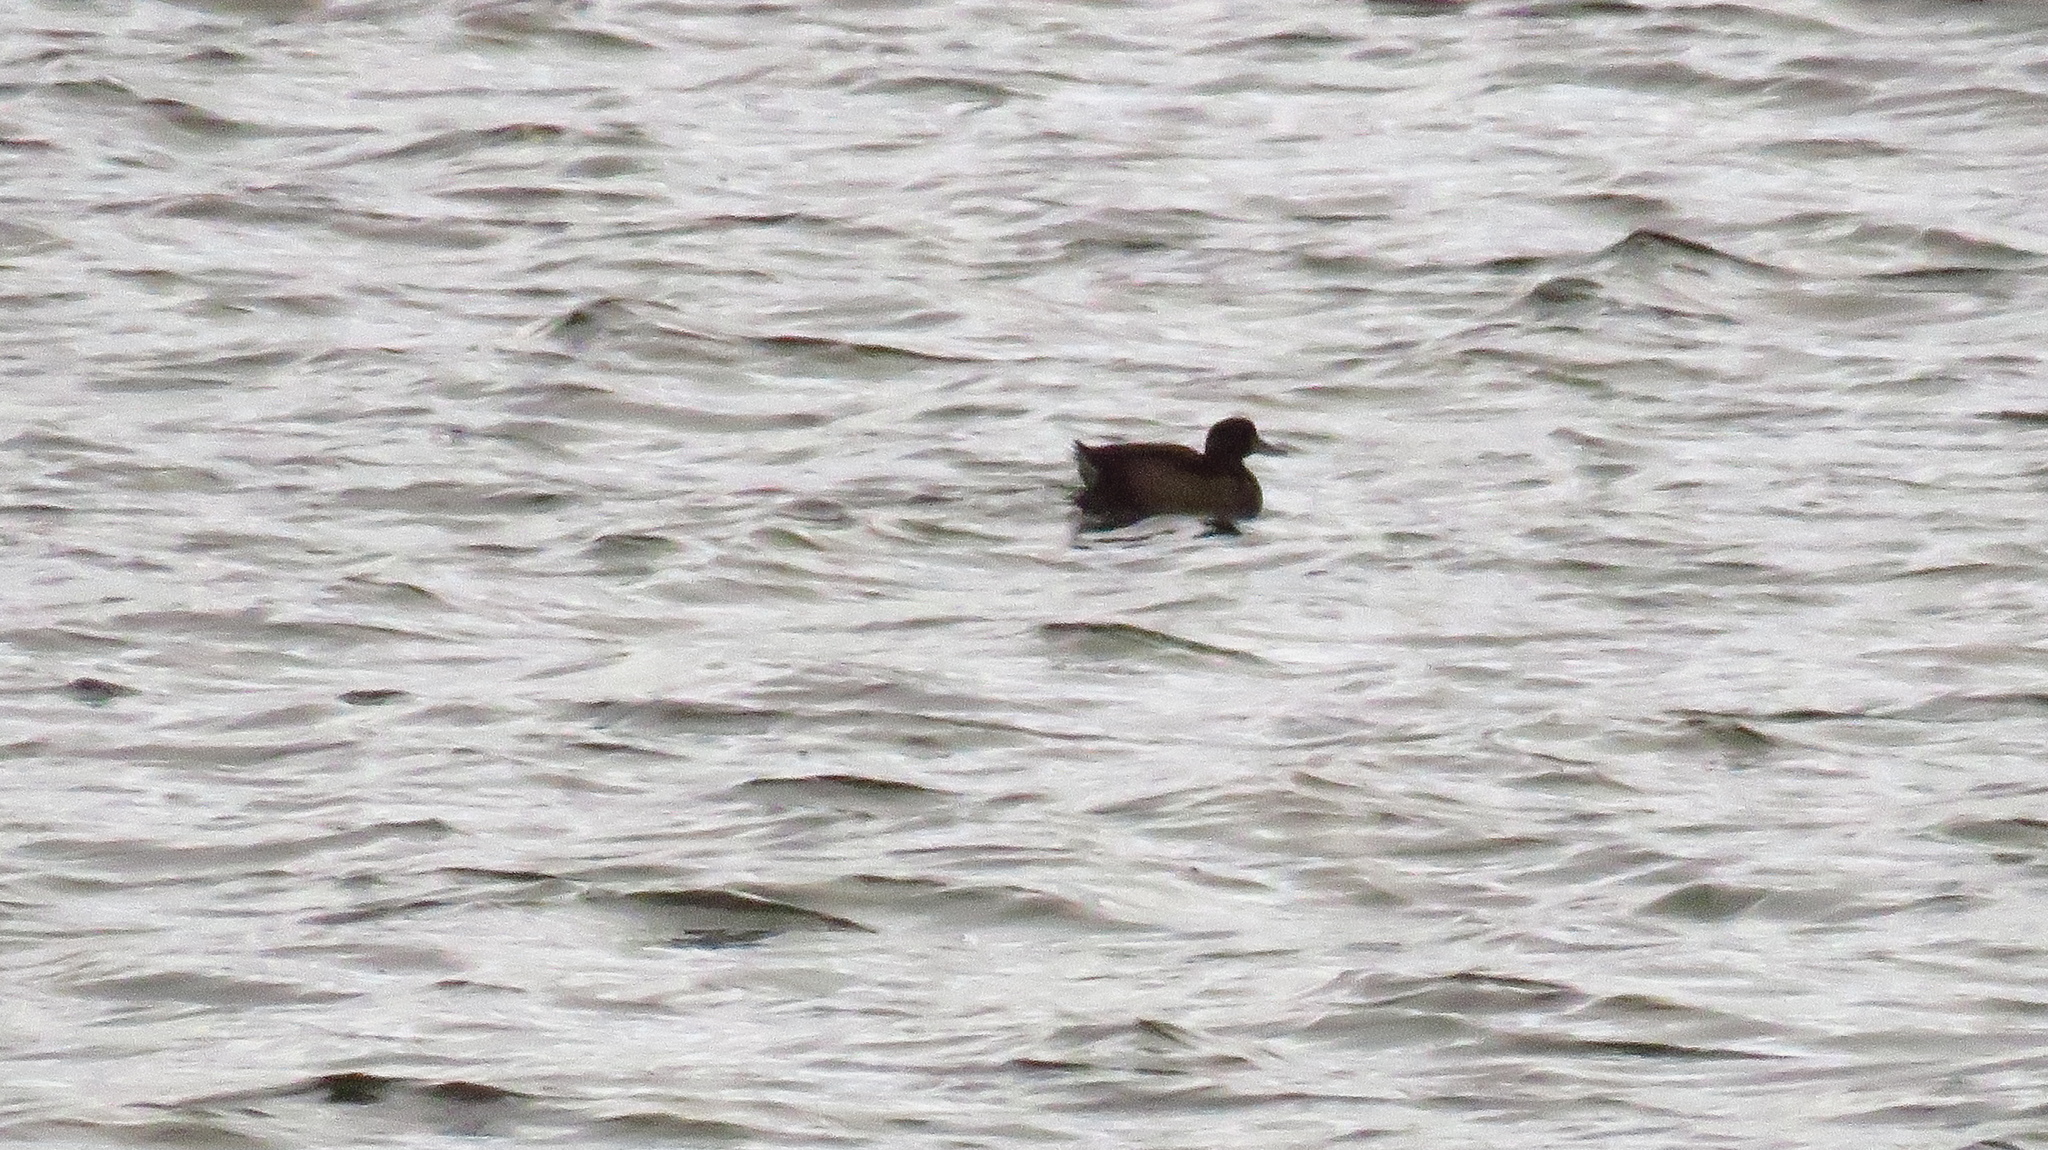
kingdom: Animalia
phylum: Chordata
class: Aves
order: Anseriformes
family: Anatidae
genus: Aythya
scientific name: Aythya fuligula
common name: Tufted duck
